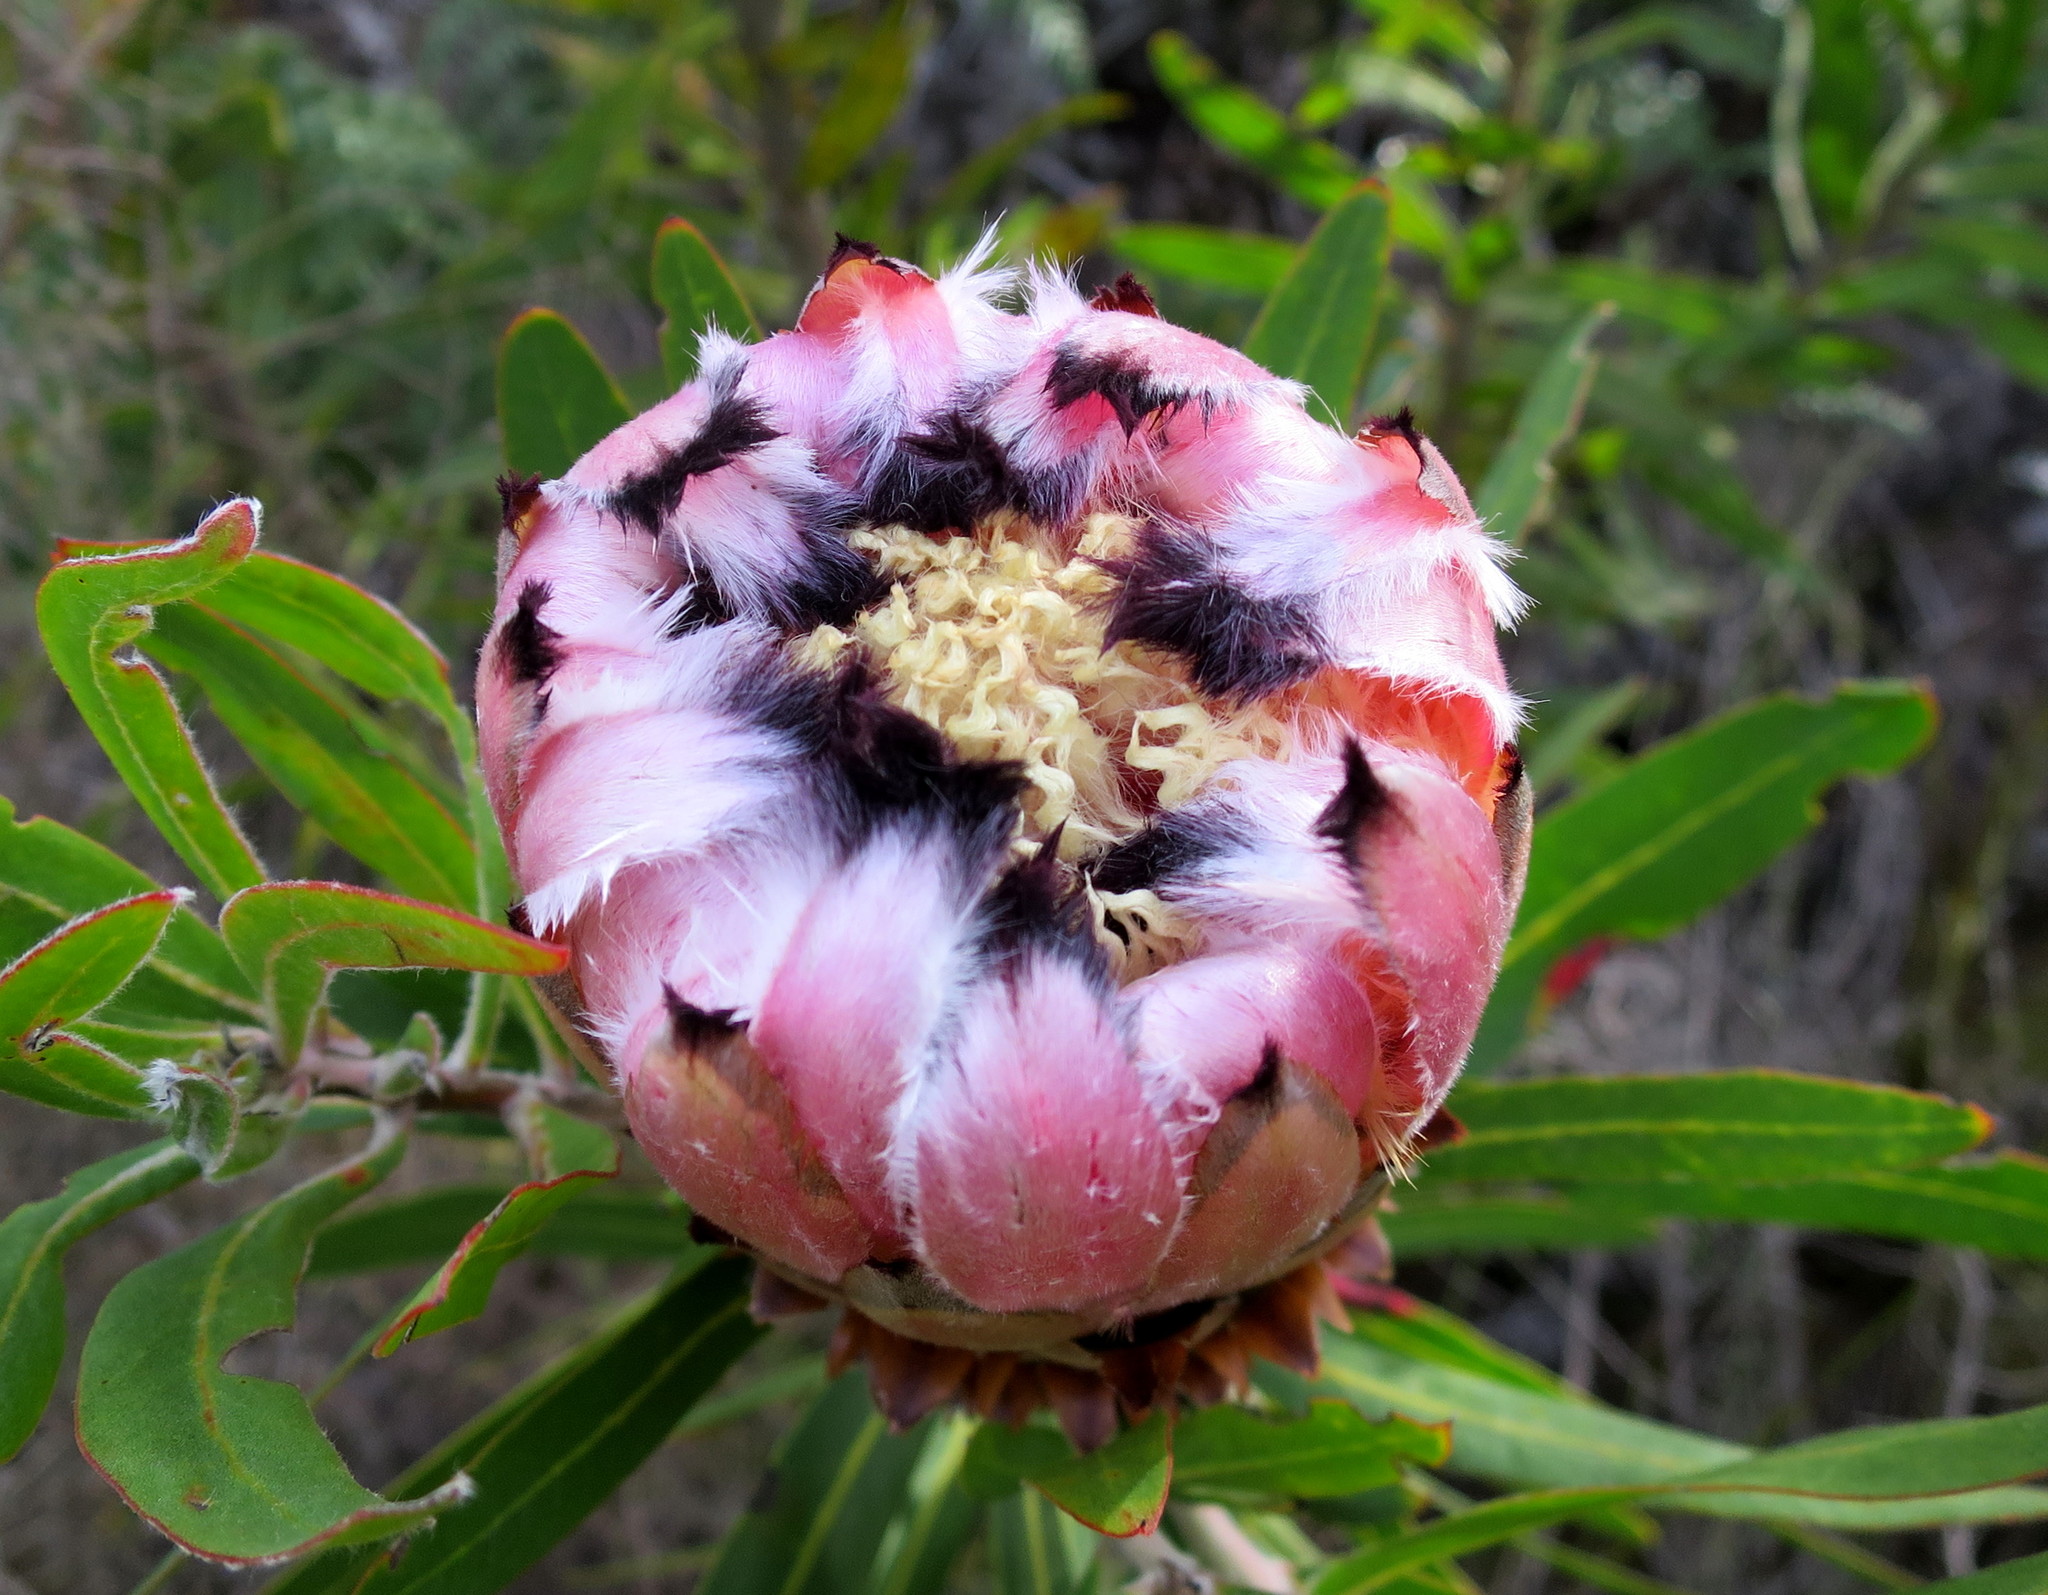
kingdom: Plantae
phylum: Tracheophyta
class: Magnoliopsida
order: Proteales
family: Proteaceae
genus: Protea
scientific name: Protea neriifolia
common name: Blue sugarbush
